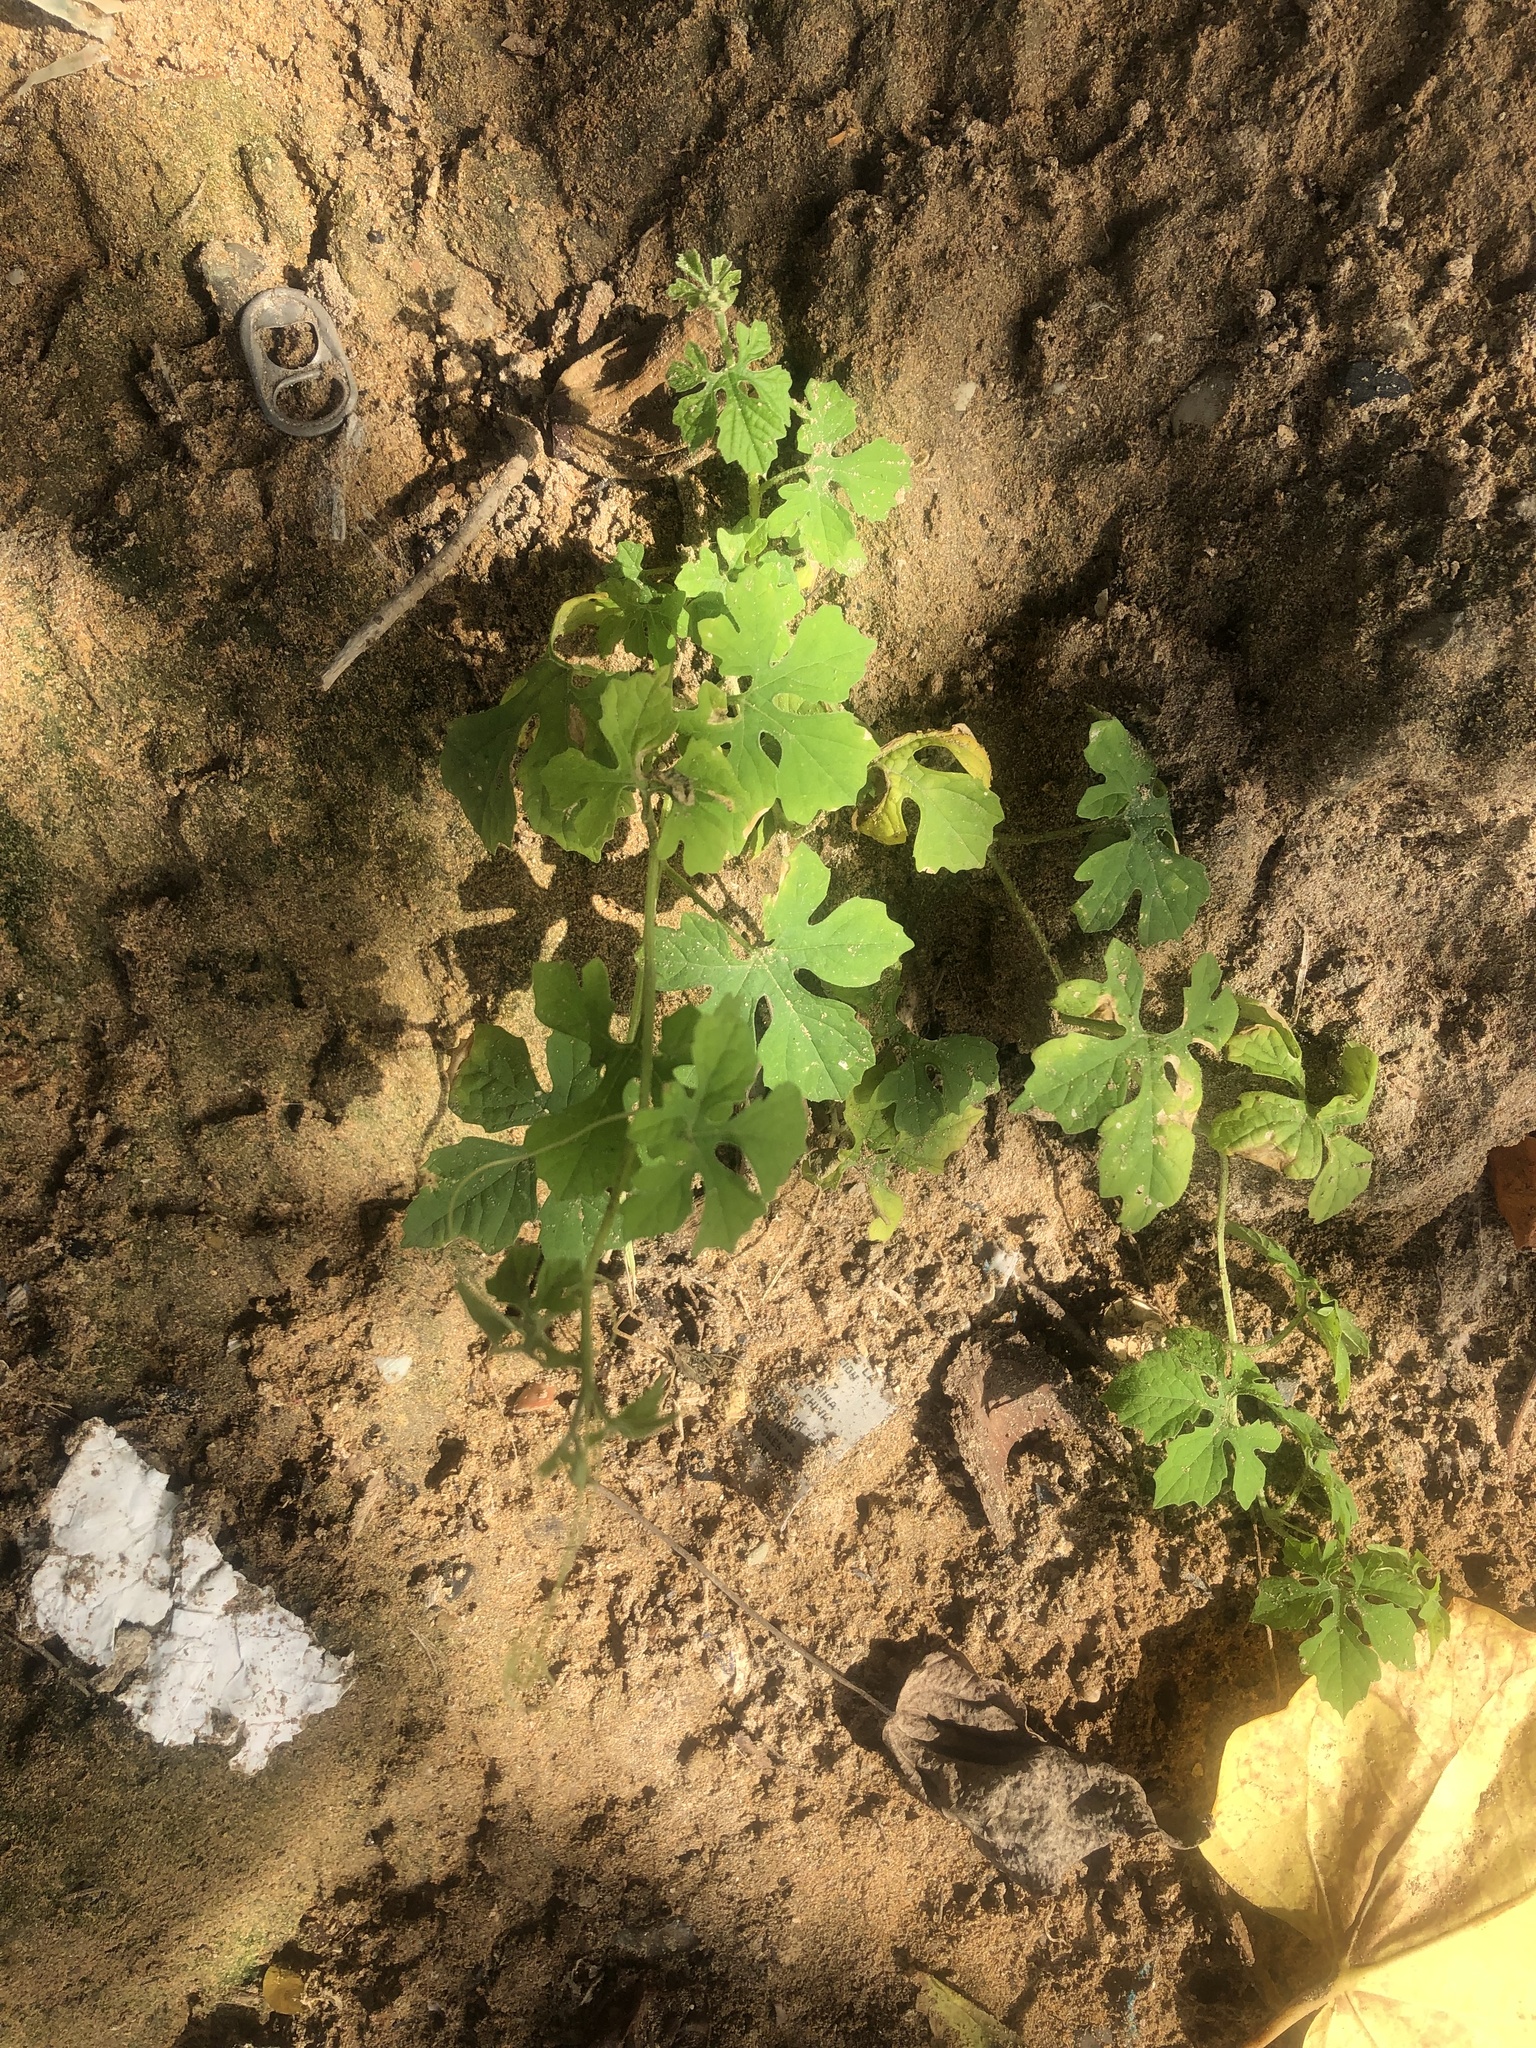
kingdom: Plantae
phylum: Tracheophyta
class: Magnoliopsida
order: Cucurbitales
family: Cucurbitaceae
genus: Momordica
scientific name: Momordica charantia
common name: Balsampear
